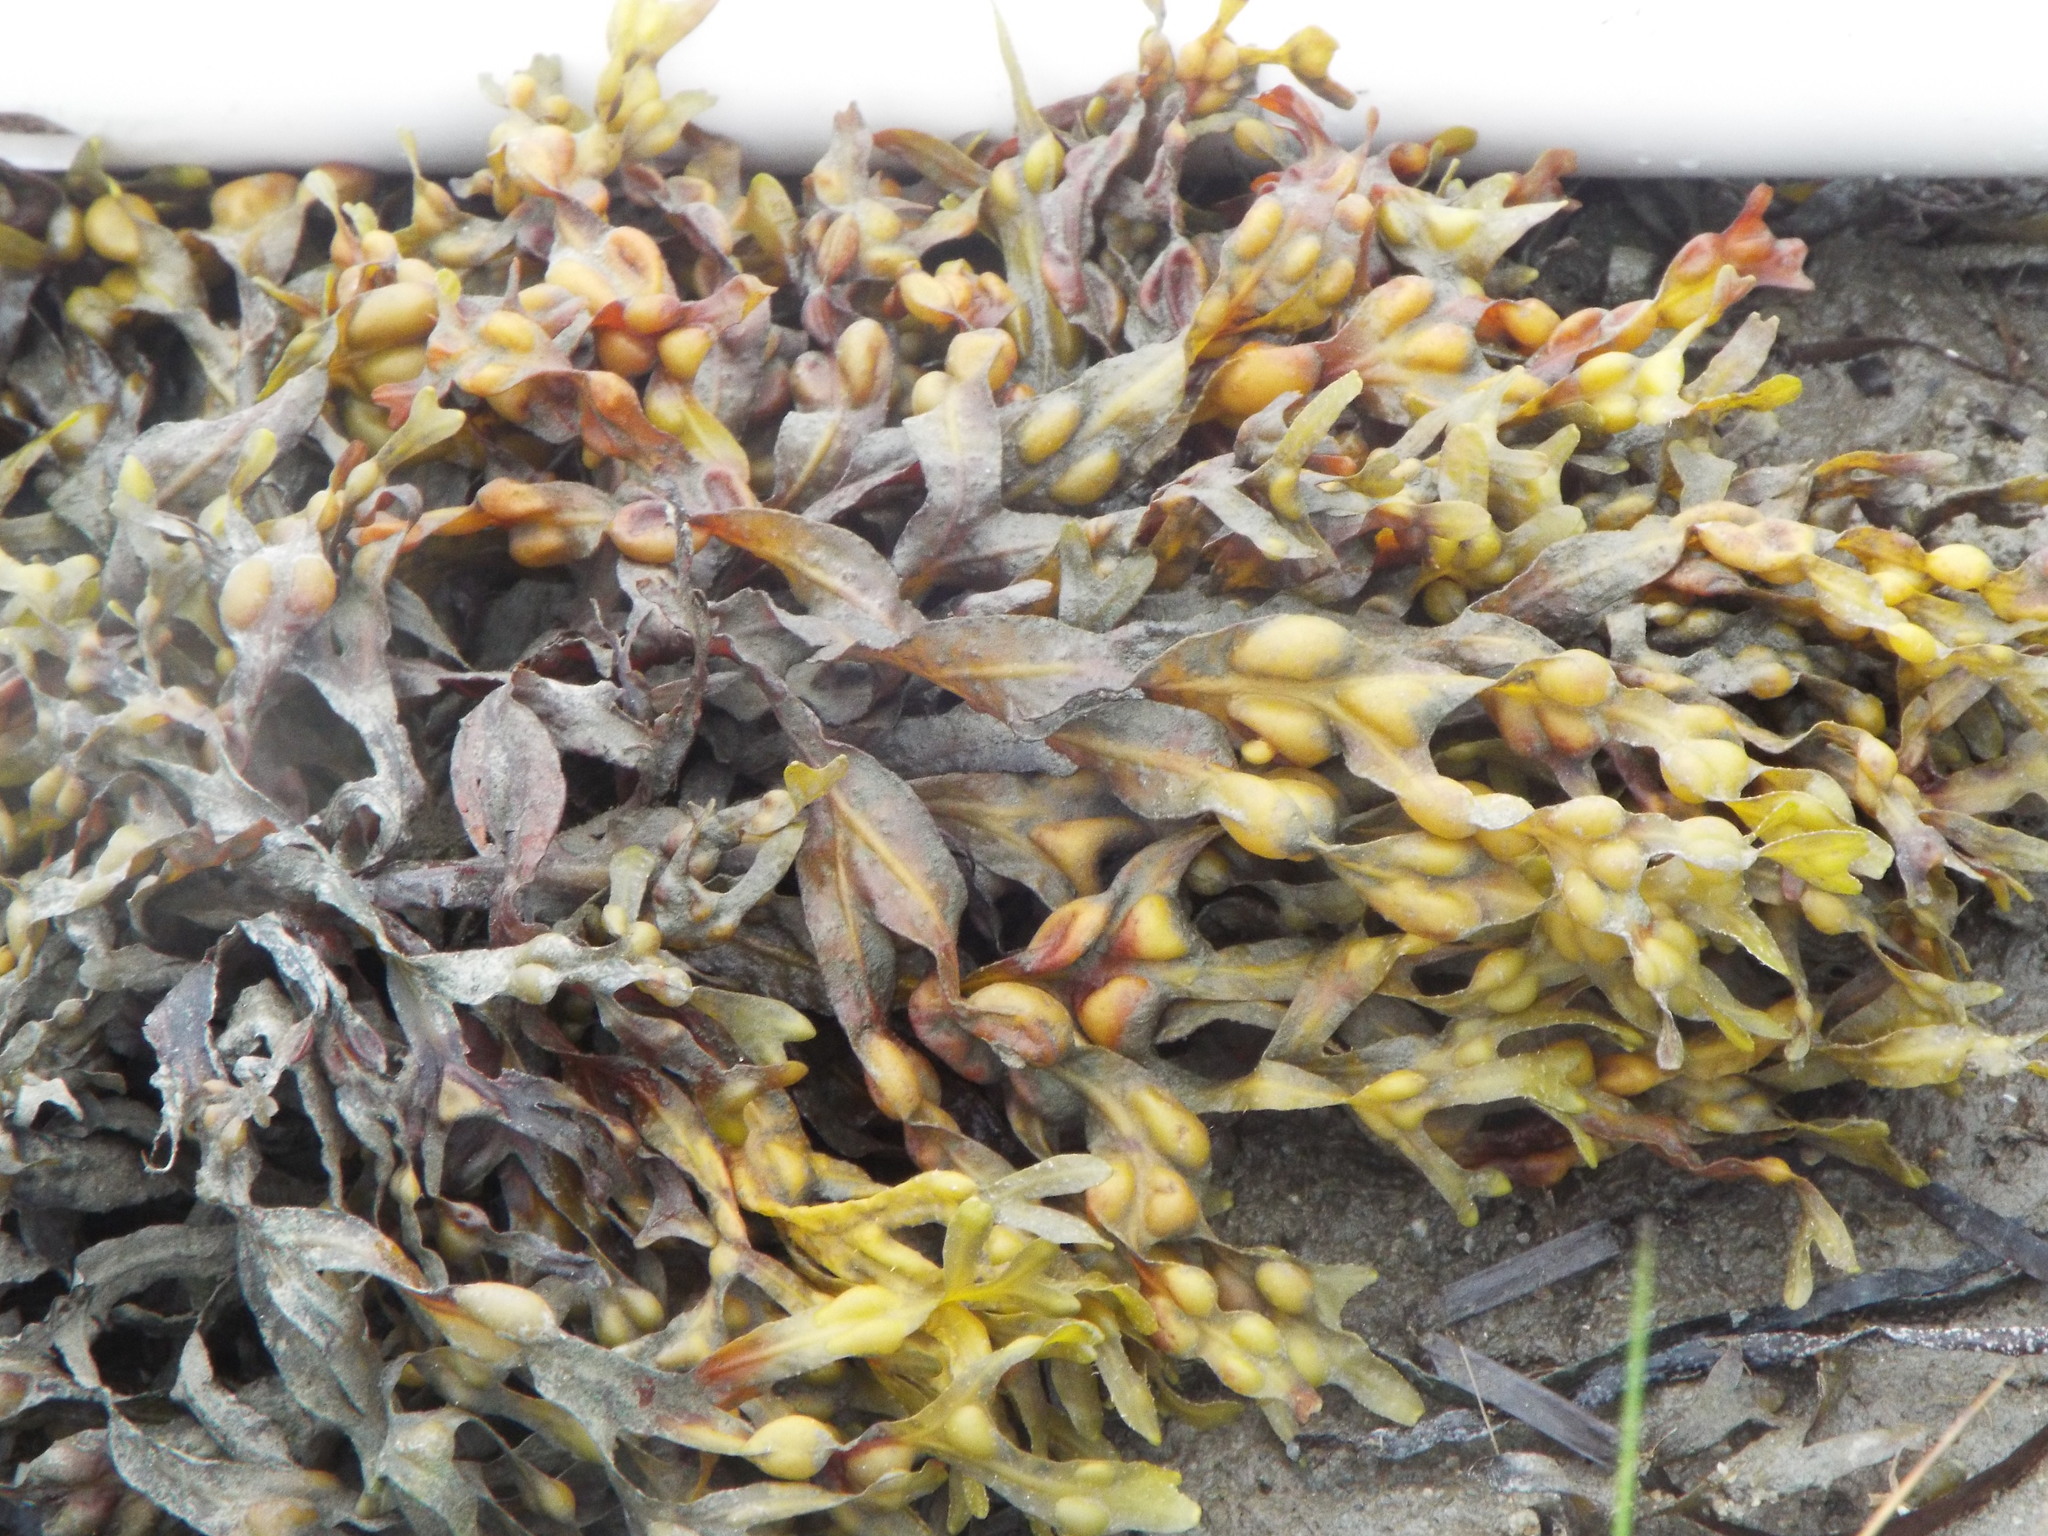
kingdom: Chromista
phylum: Ochrophyta
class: Phaeophyceae
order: Fucales
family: Fucaceae
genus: Fucus
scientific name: Fucus vesiculosus
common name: Bladder wrack
